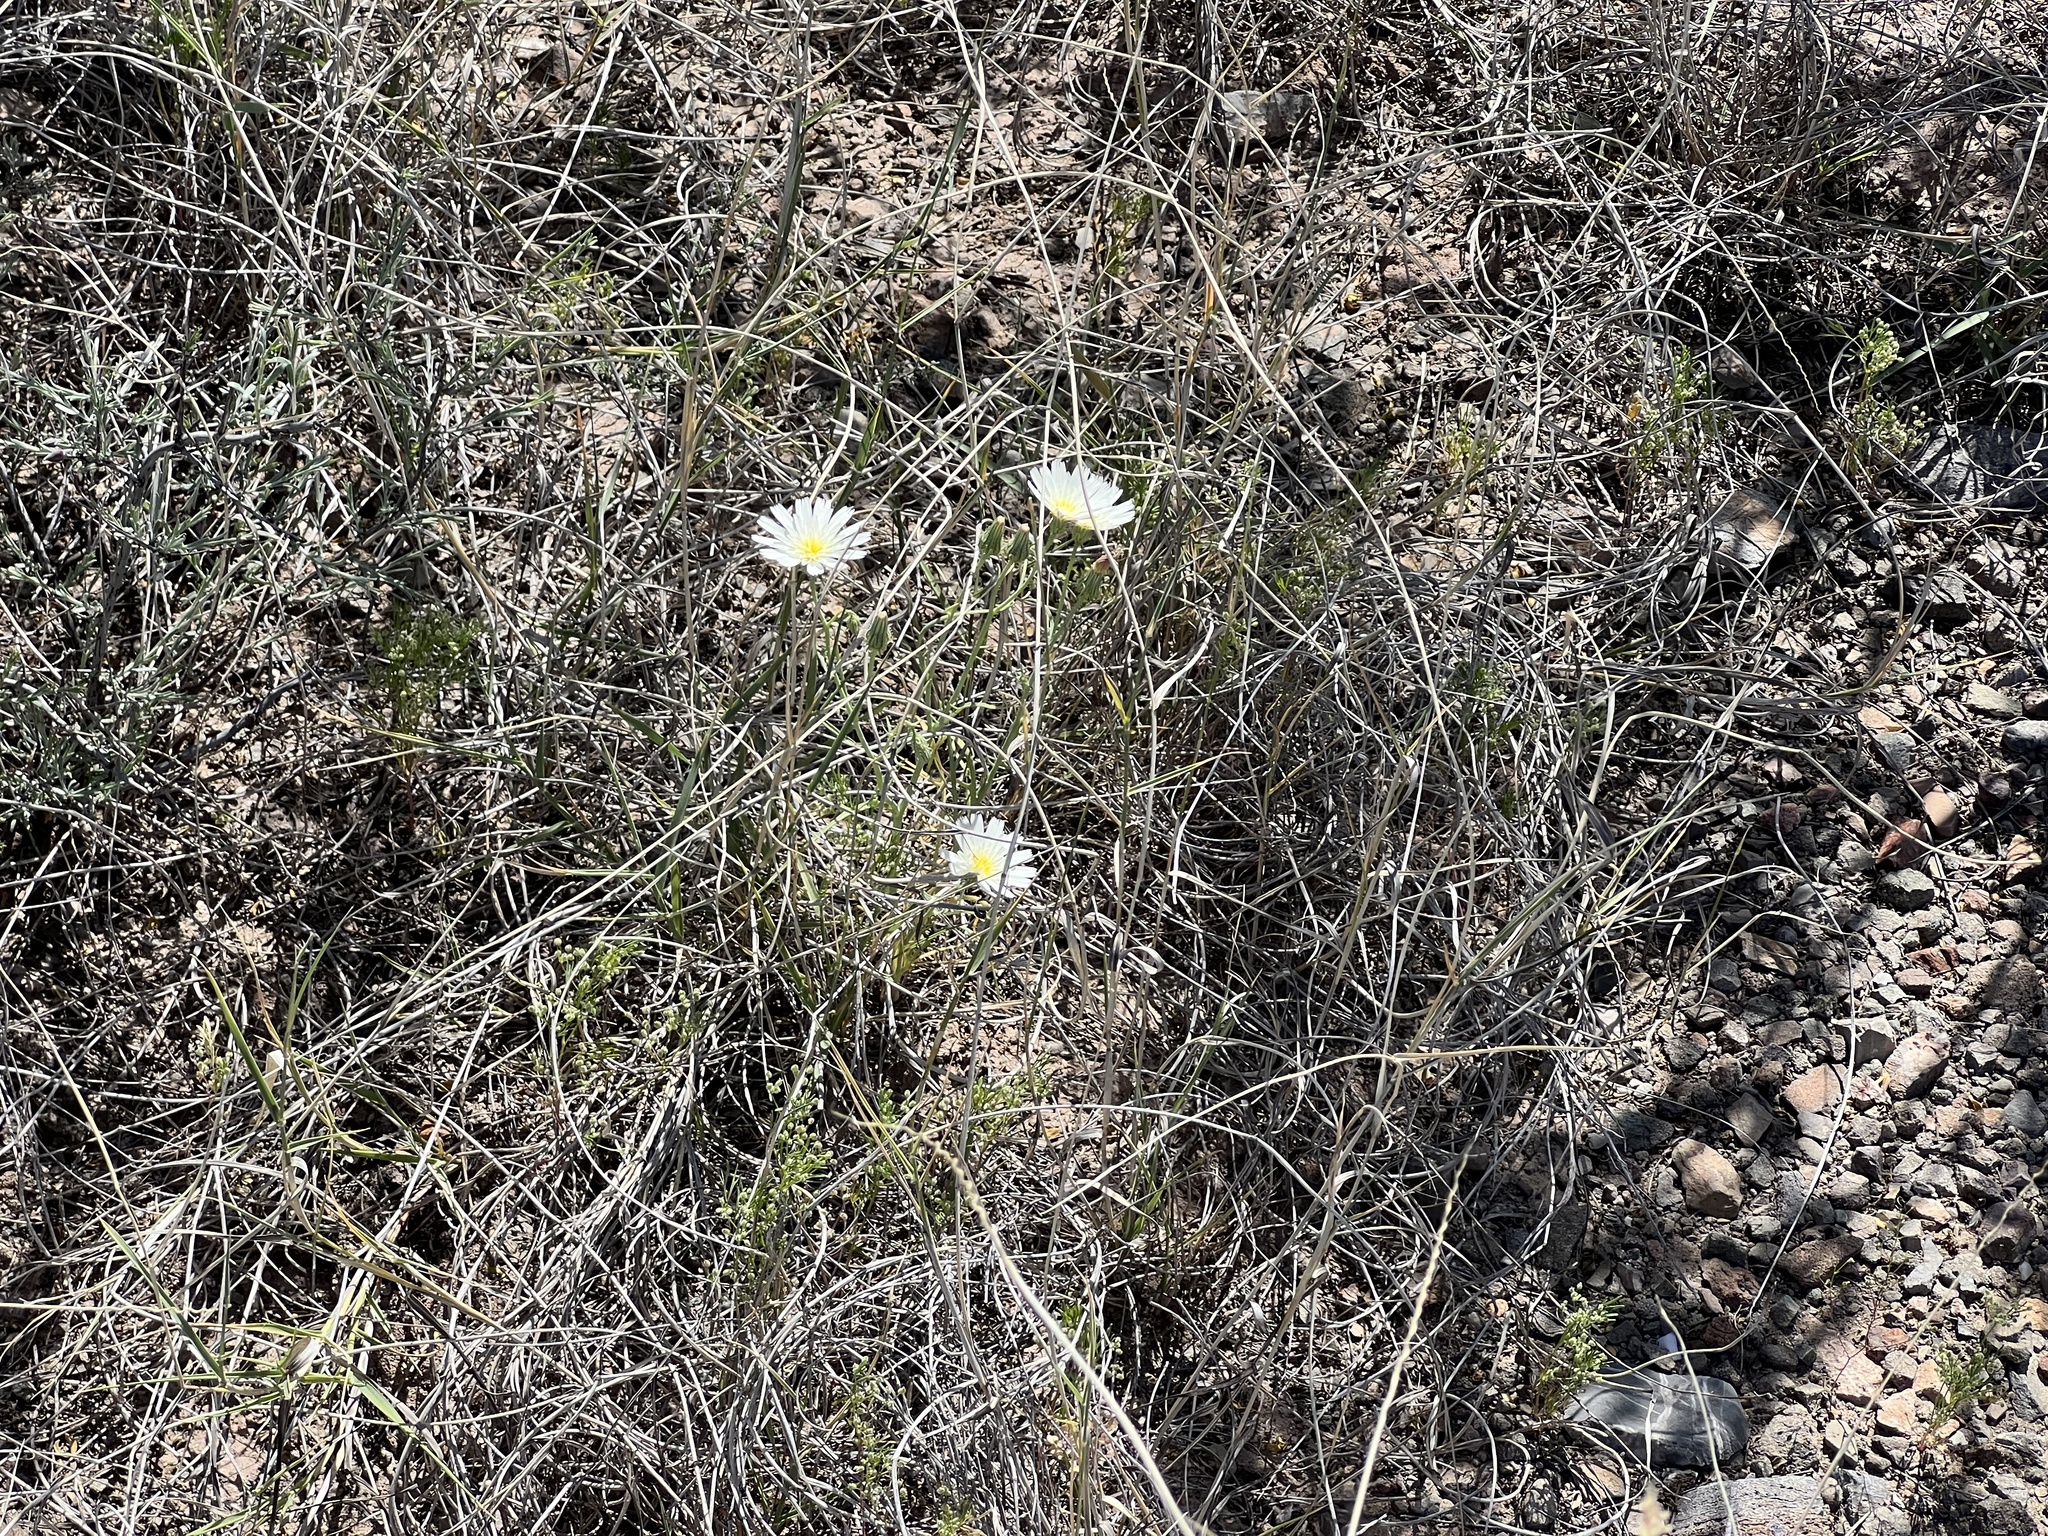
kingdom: Plantae
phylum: Tracheophyta
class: Magnoliopsida
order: Asterales
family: Asteraceae
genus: Calycoseris
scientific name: Calycoseris wrightii
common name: White tackstem
